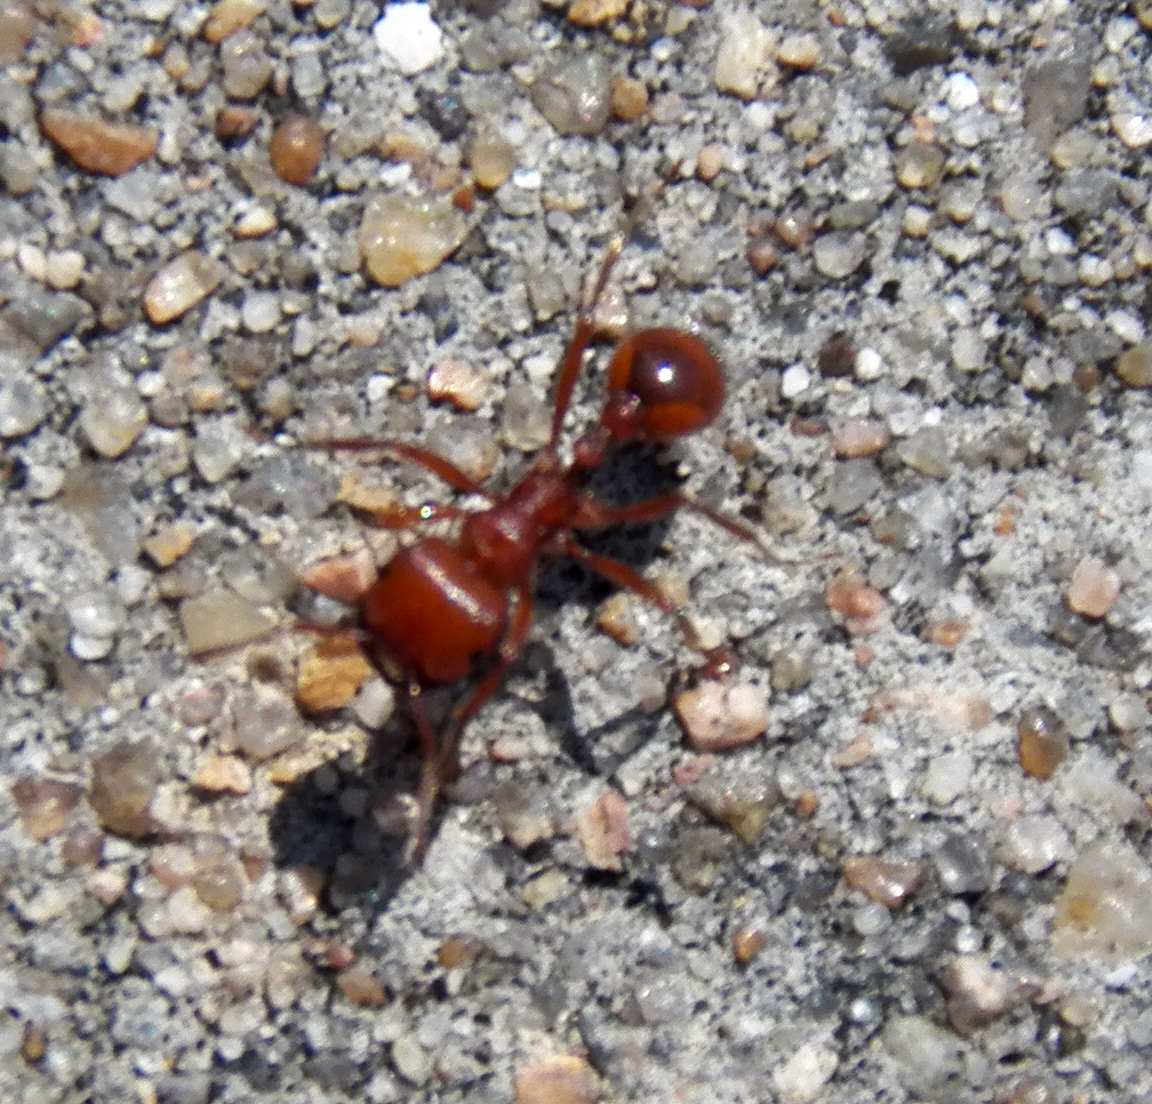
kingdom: Animalia
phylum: Arthropoda
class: Insecta
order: Hymenoptera
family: Formicidae
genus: Pogonomyrmex
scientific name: Pogonomyrmex barbatus
